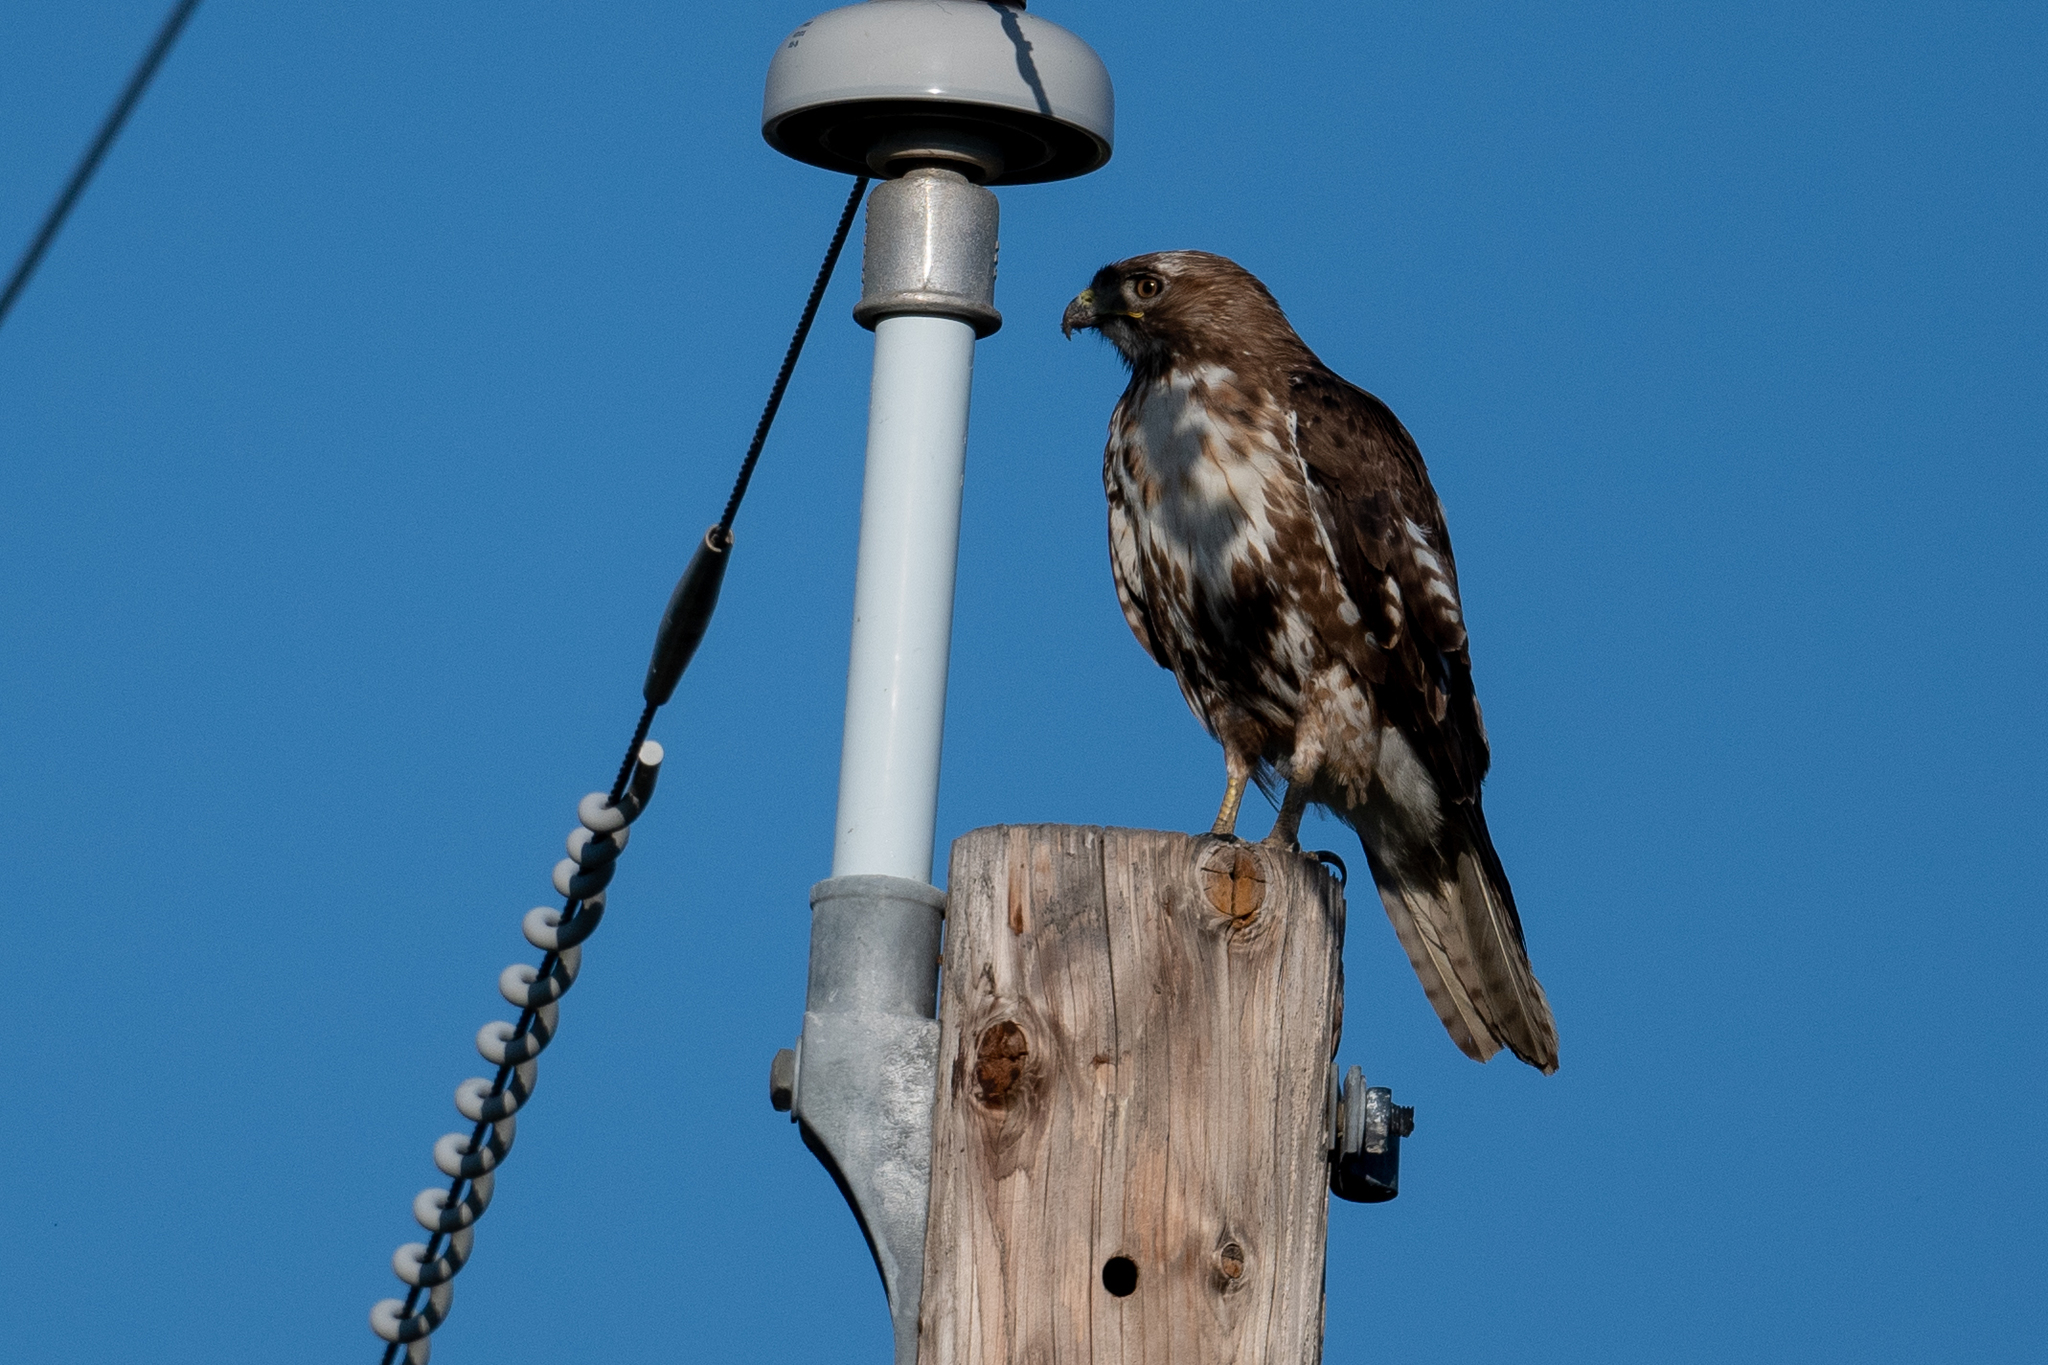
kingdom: Animalia
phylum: Chordata
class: Aves
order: Accipitriformes
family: Accipitridae
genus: Buteo
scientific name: Buteo jamaicensis
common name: Red-tailed hawk
